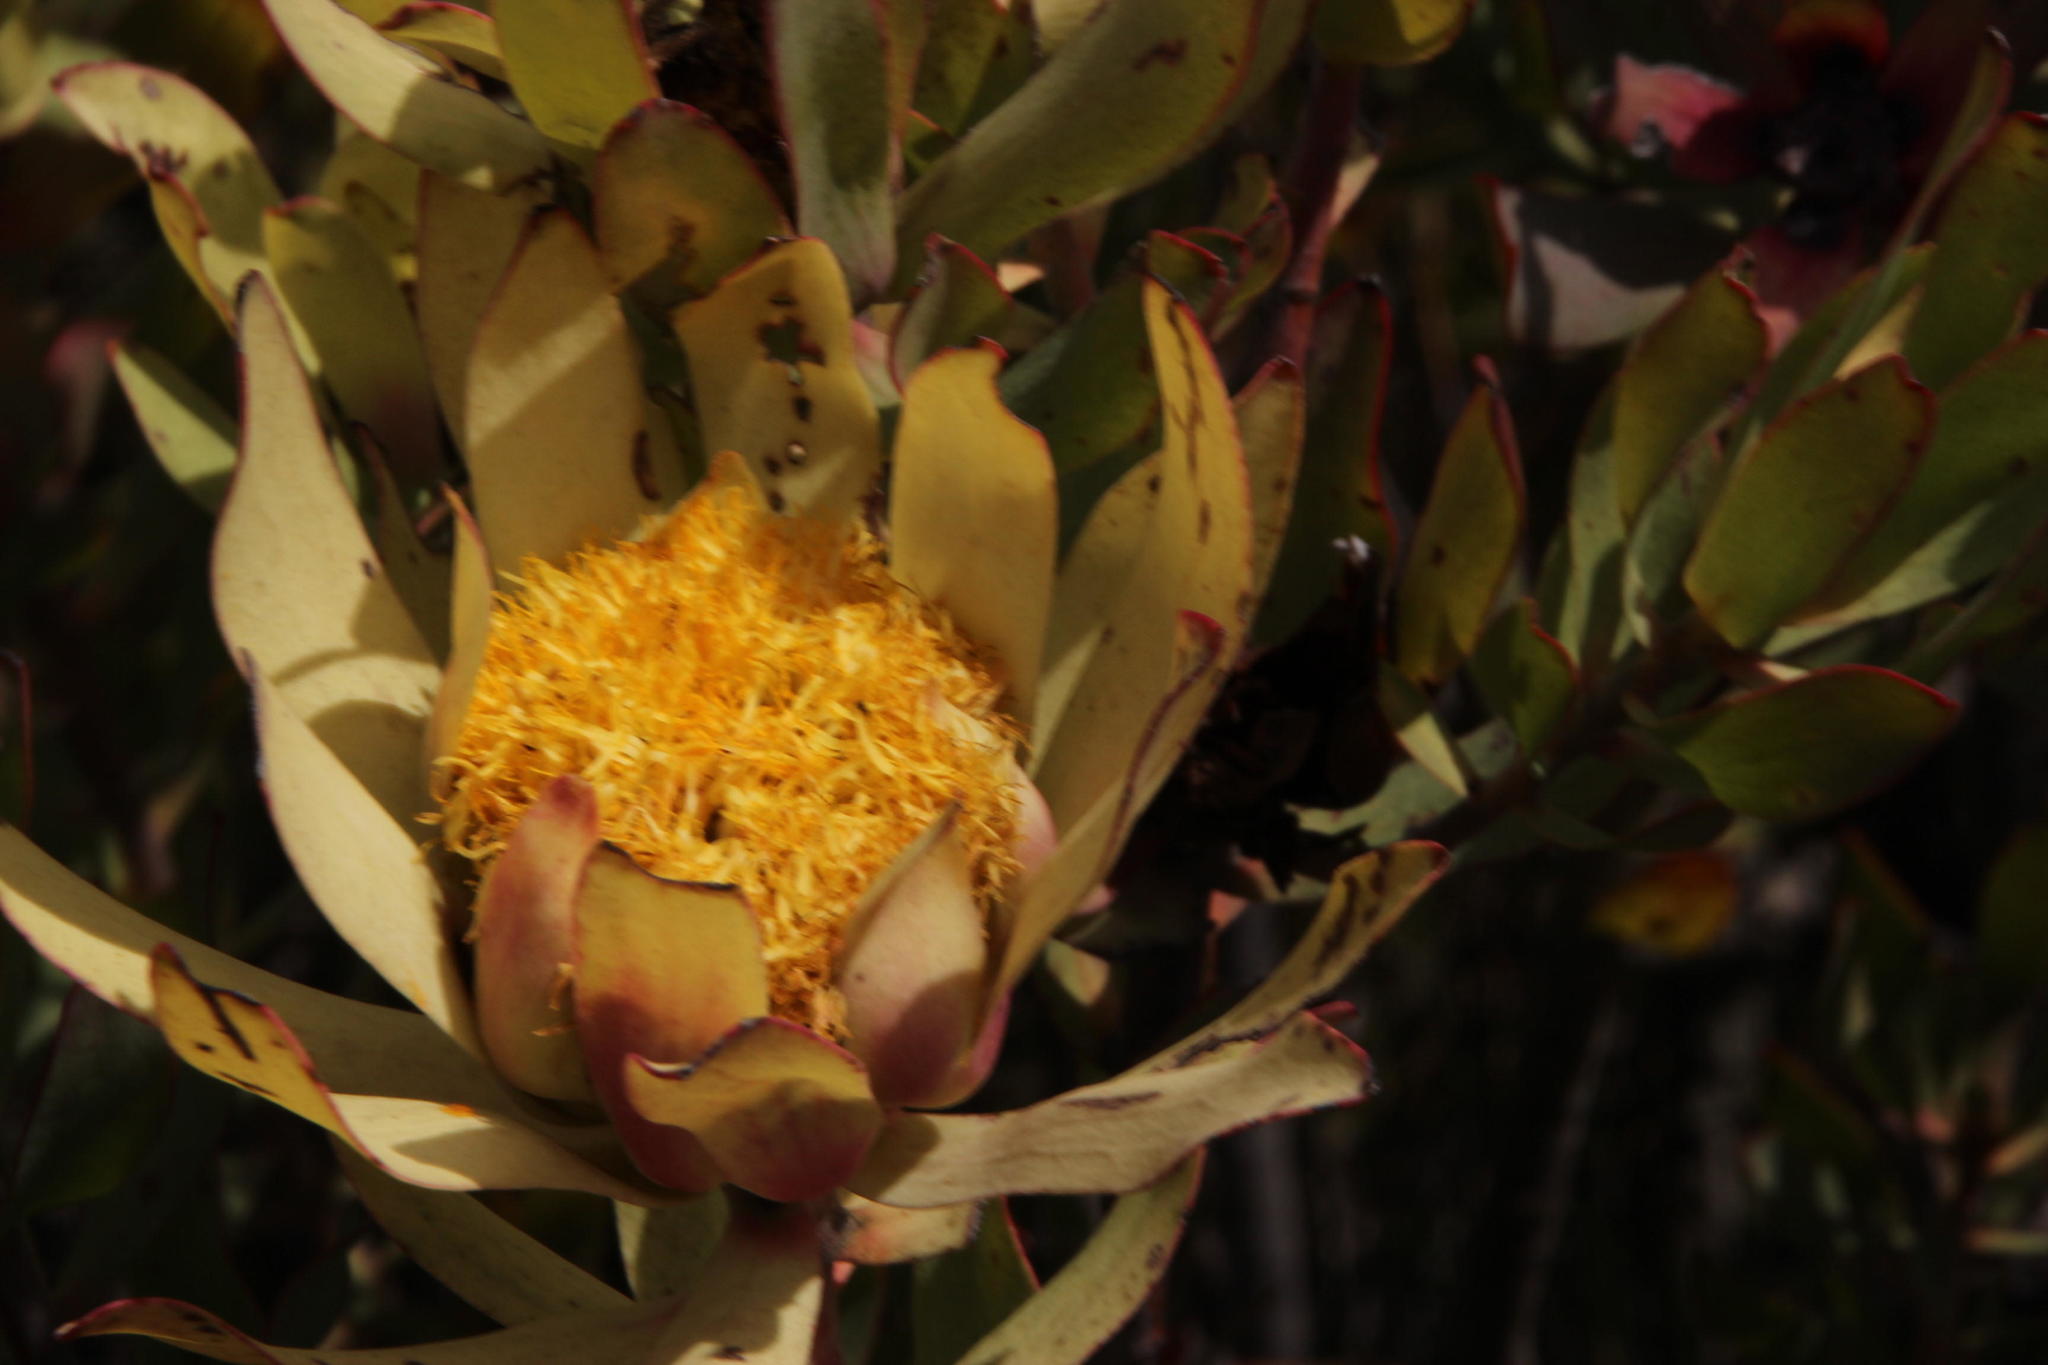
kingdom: Plantae
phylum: Tracheophyta
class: Magnoliopsida
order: Proteales
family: Proteaceae
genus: Leucadendron
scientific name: Leucadendron barkerae
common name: Swartberg conebush
